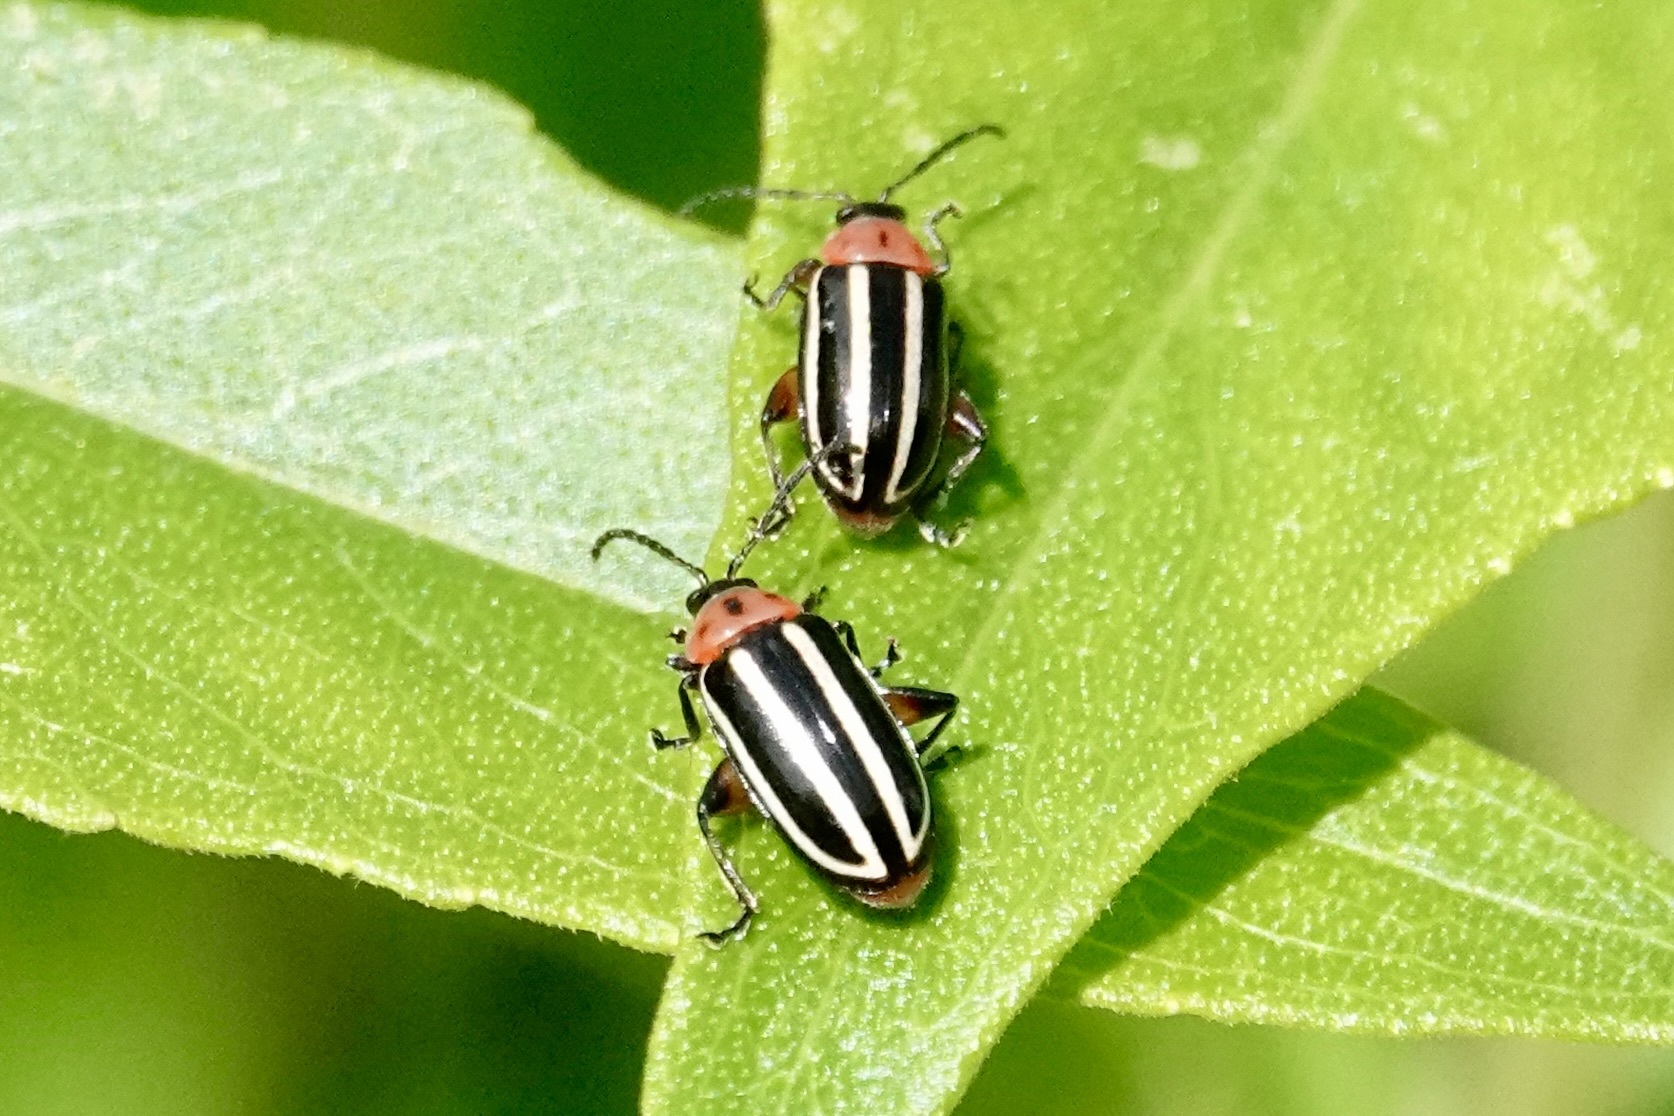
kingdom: Animalia
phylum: Arthropoda
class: Insecta
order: Coleoptera
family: Chrysomelidae
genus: Disonycha
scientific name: Disonycha glabrata
